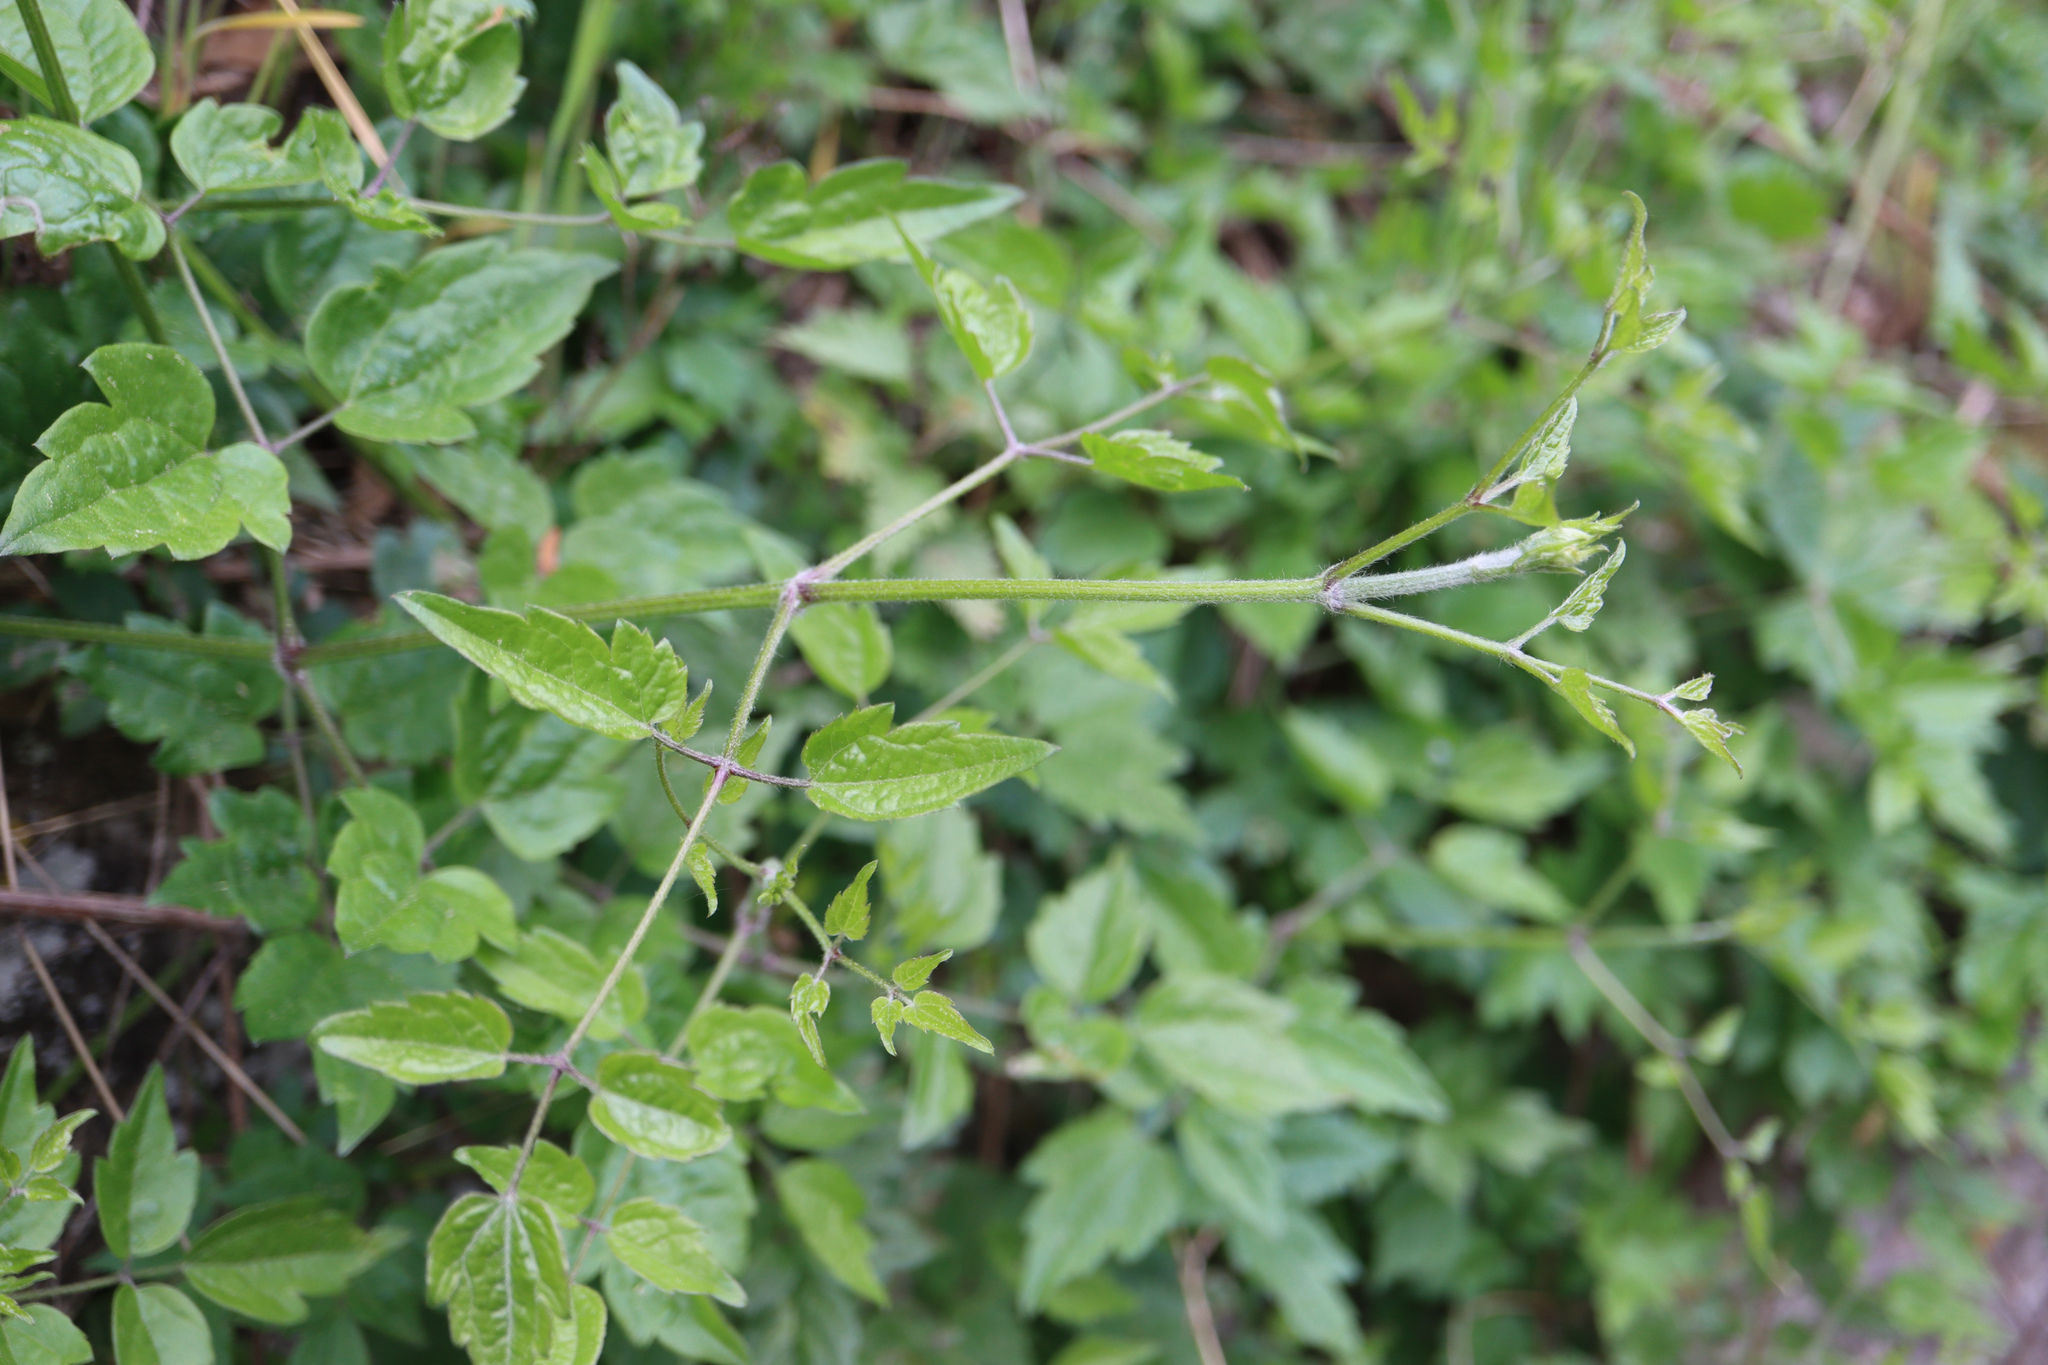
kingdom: Plantae
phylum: Tracheophyta
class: Magnoliopsida
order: Ranunculales
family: Ranunculaceae
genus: Clematis
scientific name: Clematis vitalba
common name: Evergreen clematis
